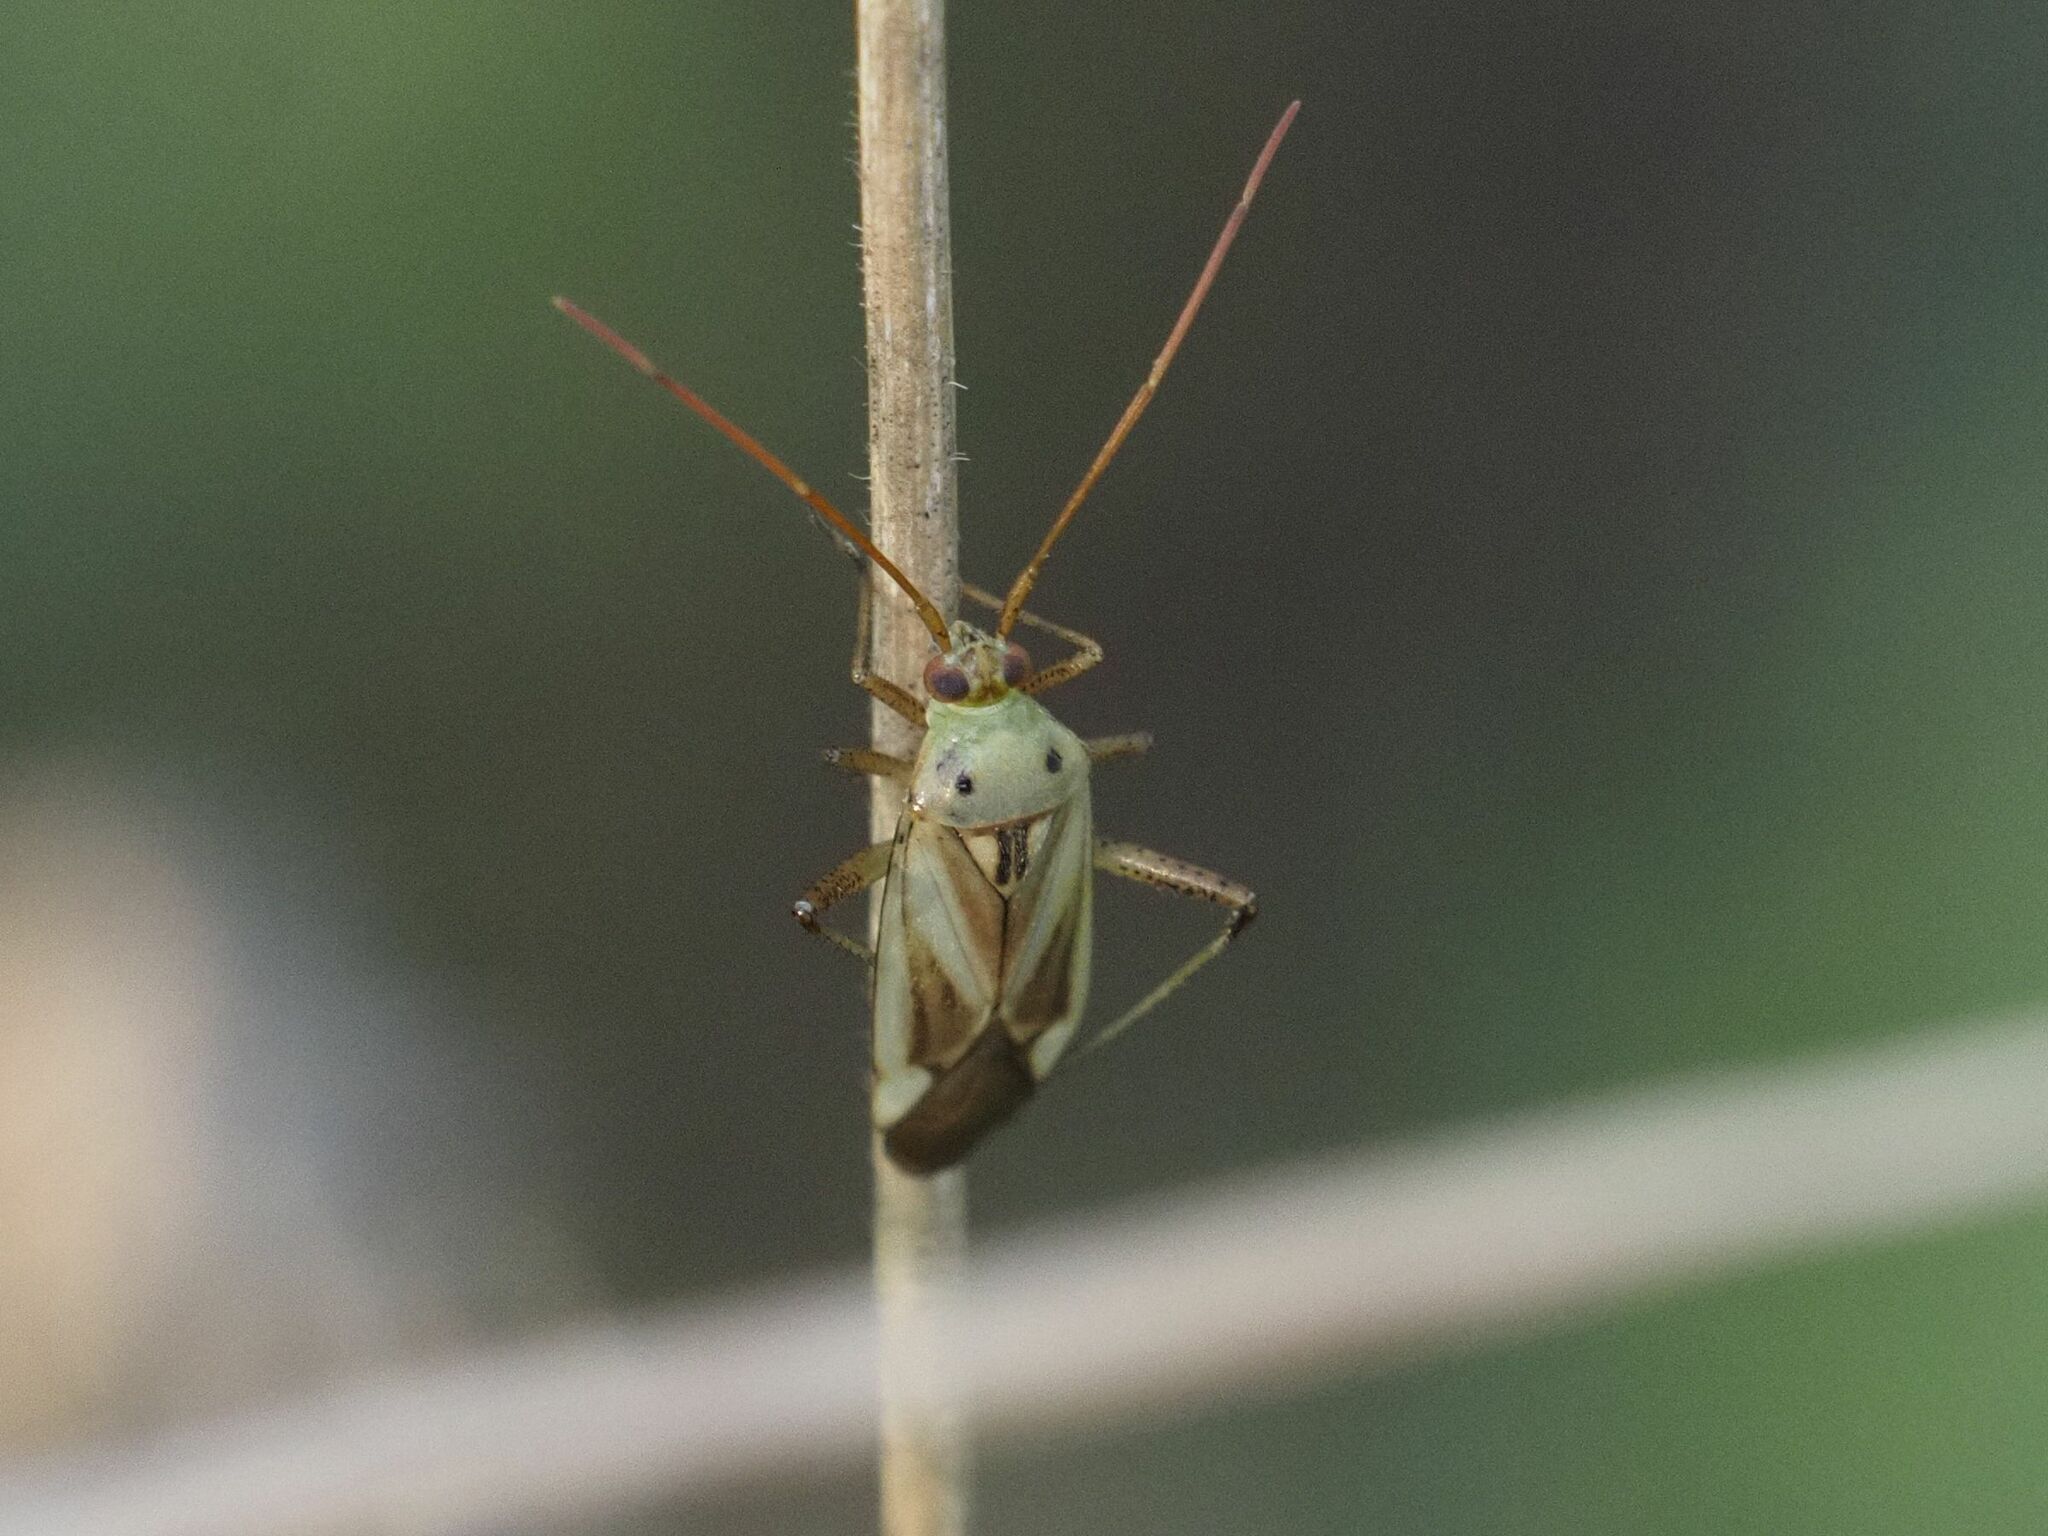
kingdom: Animalia
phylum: Arthropoda
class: Insecta
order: Hemiptera
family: Miridae
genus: Adelphocoris
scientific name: Adelphocoris lineolatus
